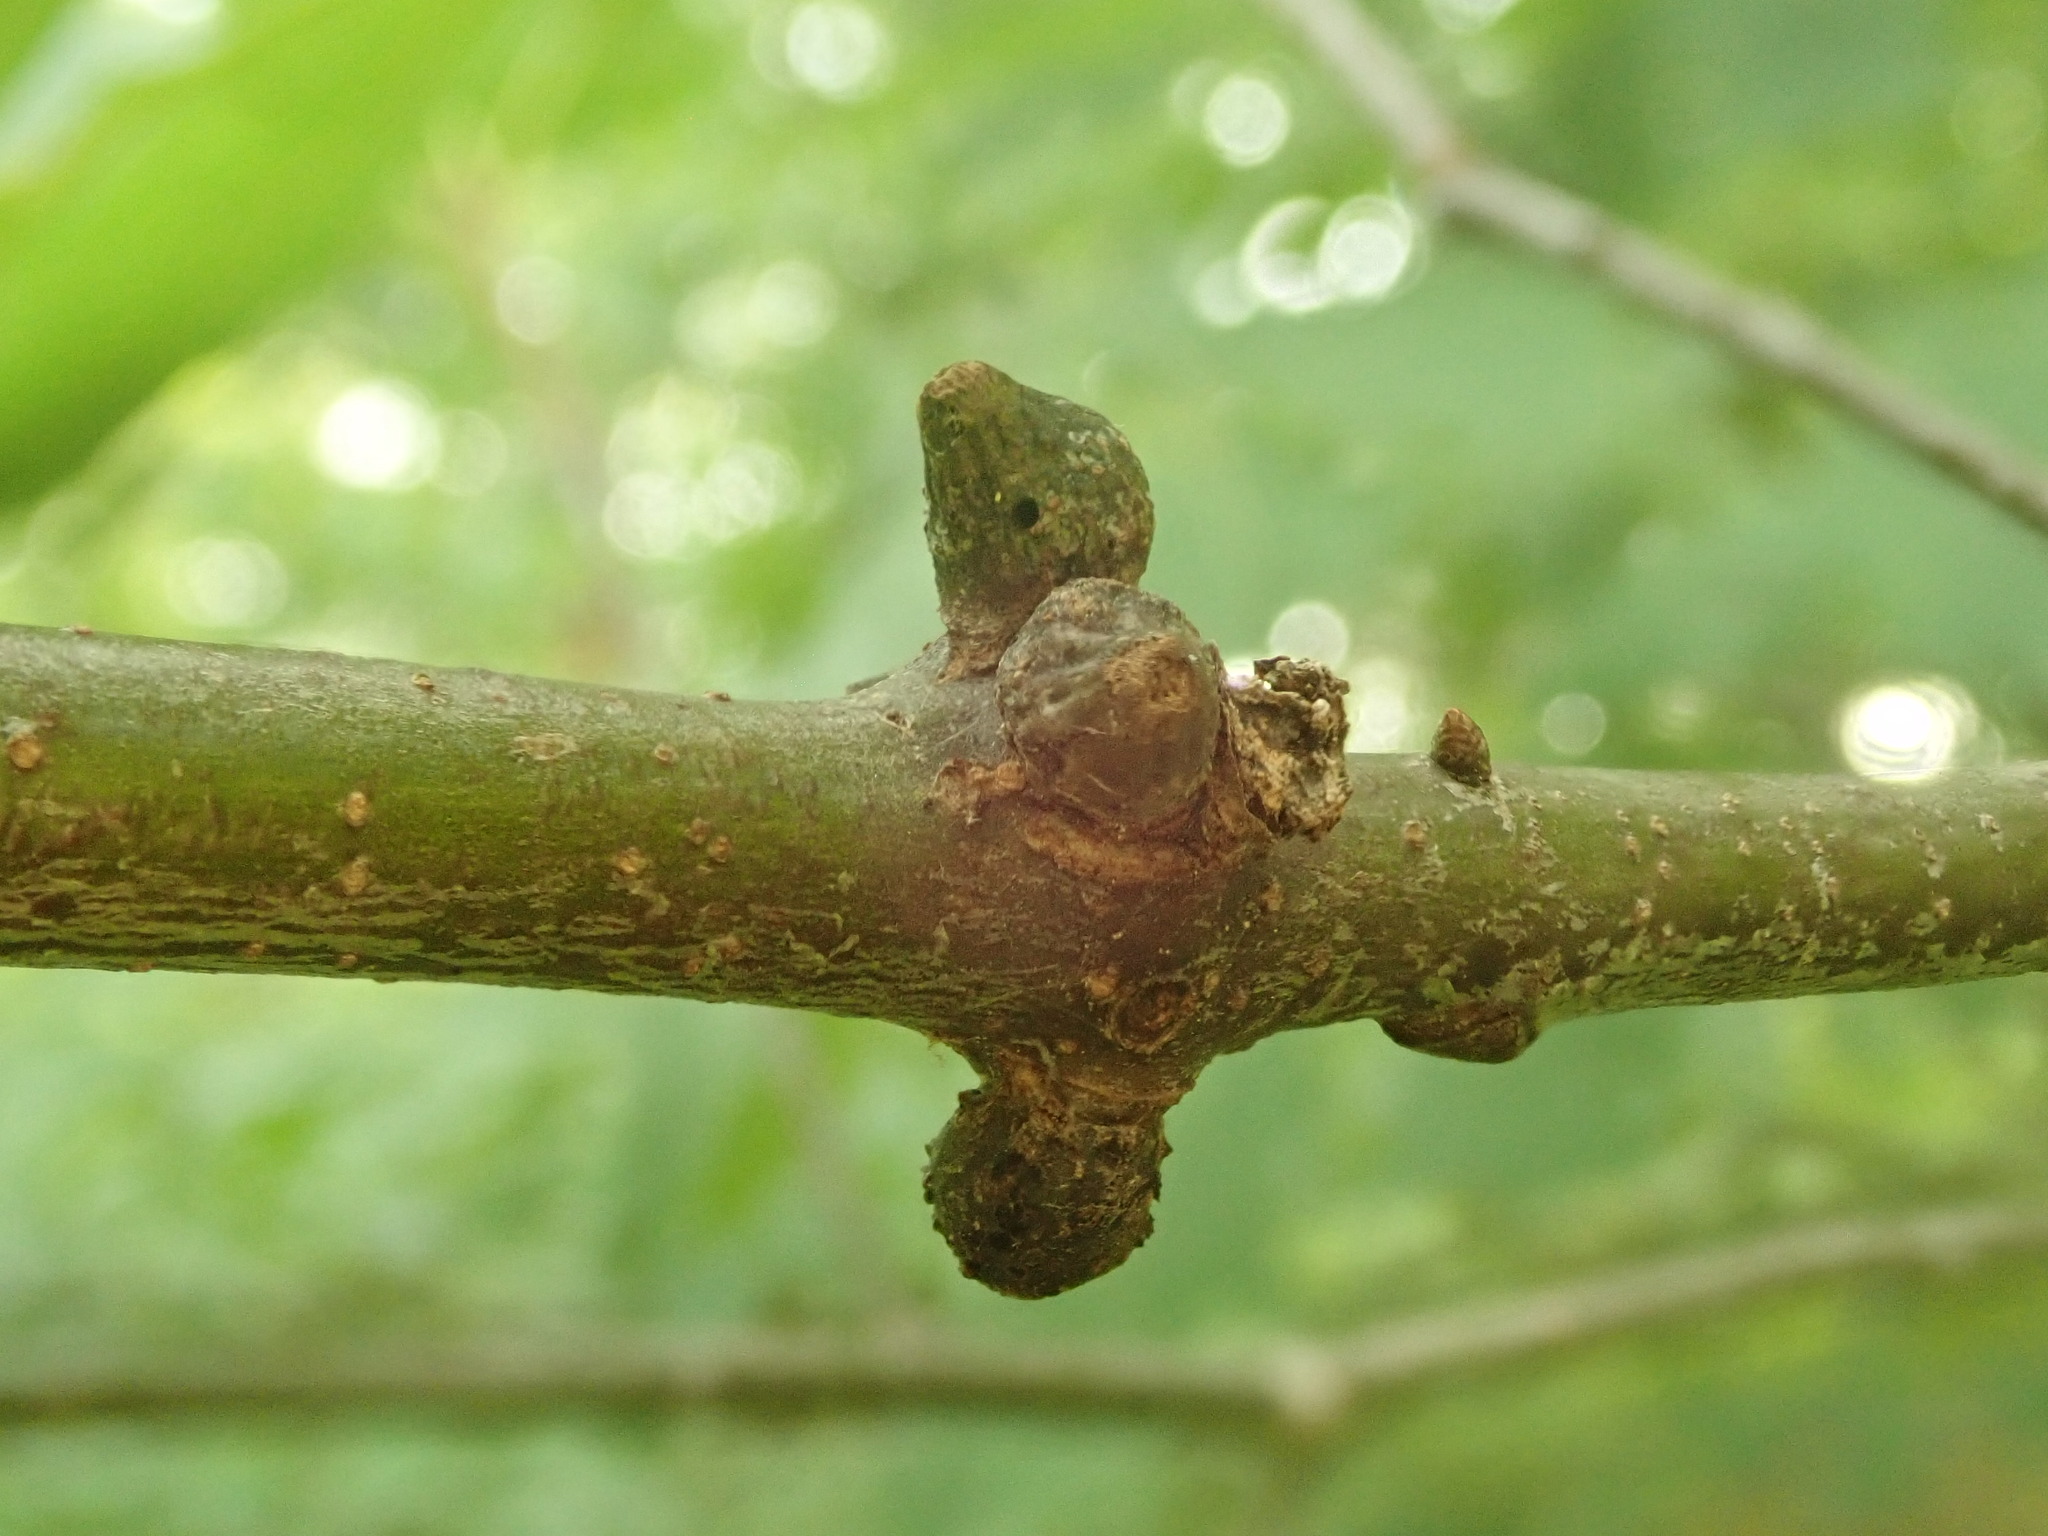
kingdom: Animalia
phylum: Arthropoda
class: Insecta
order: Hymenoptera
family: Cynipidae
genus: Callirhytis
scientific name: Callirhytis
